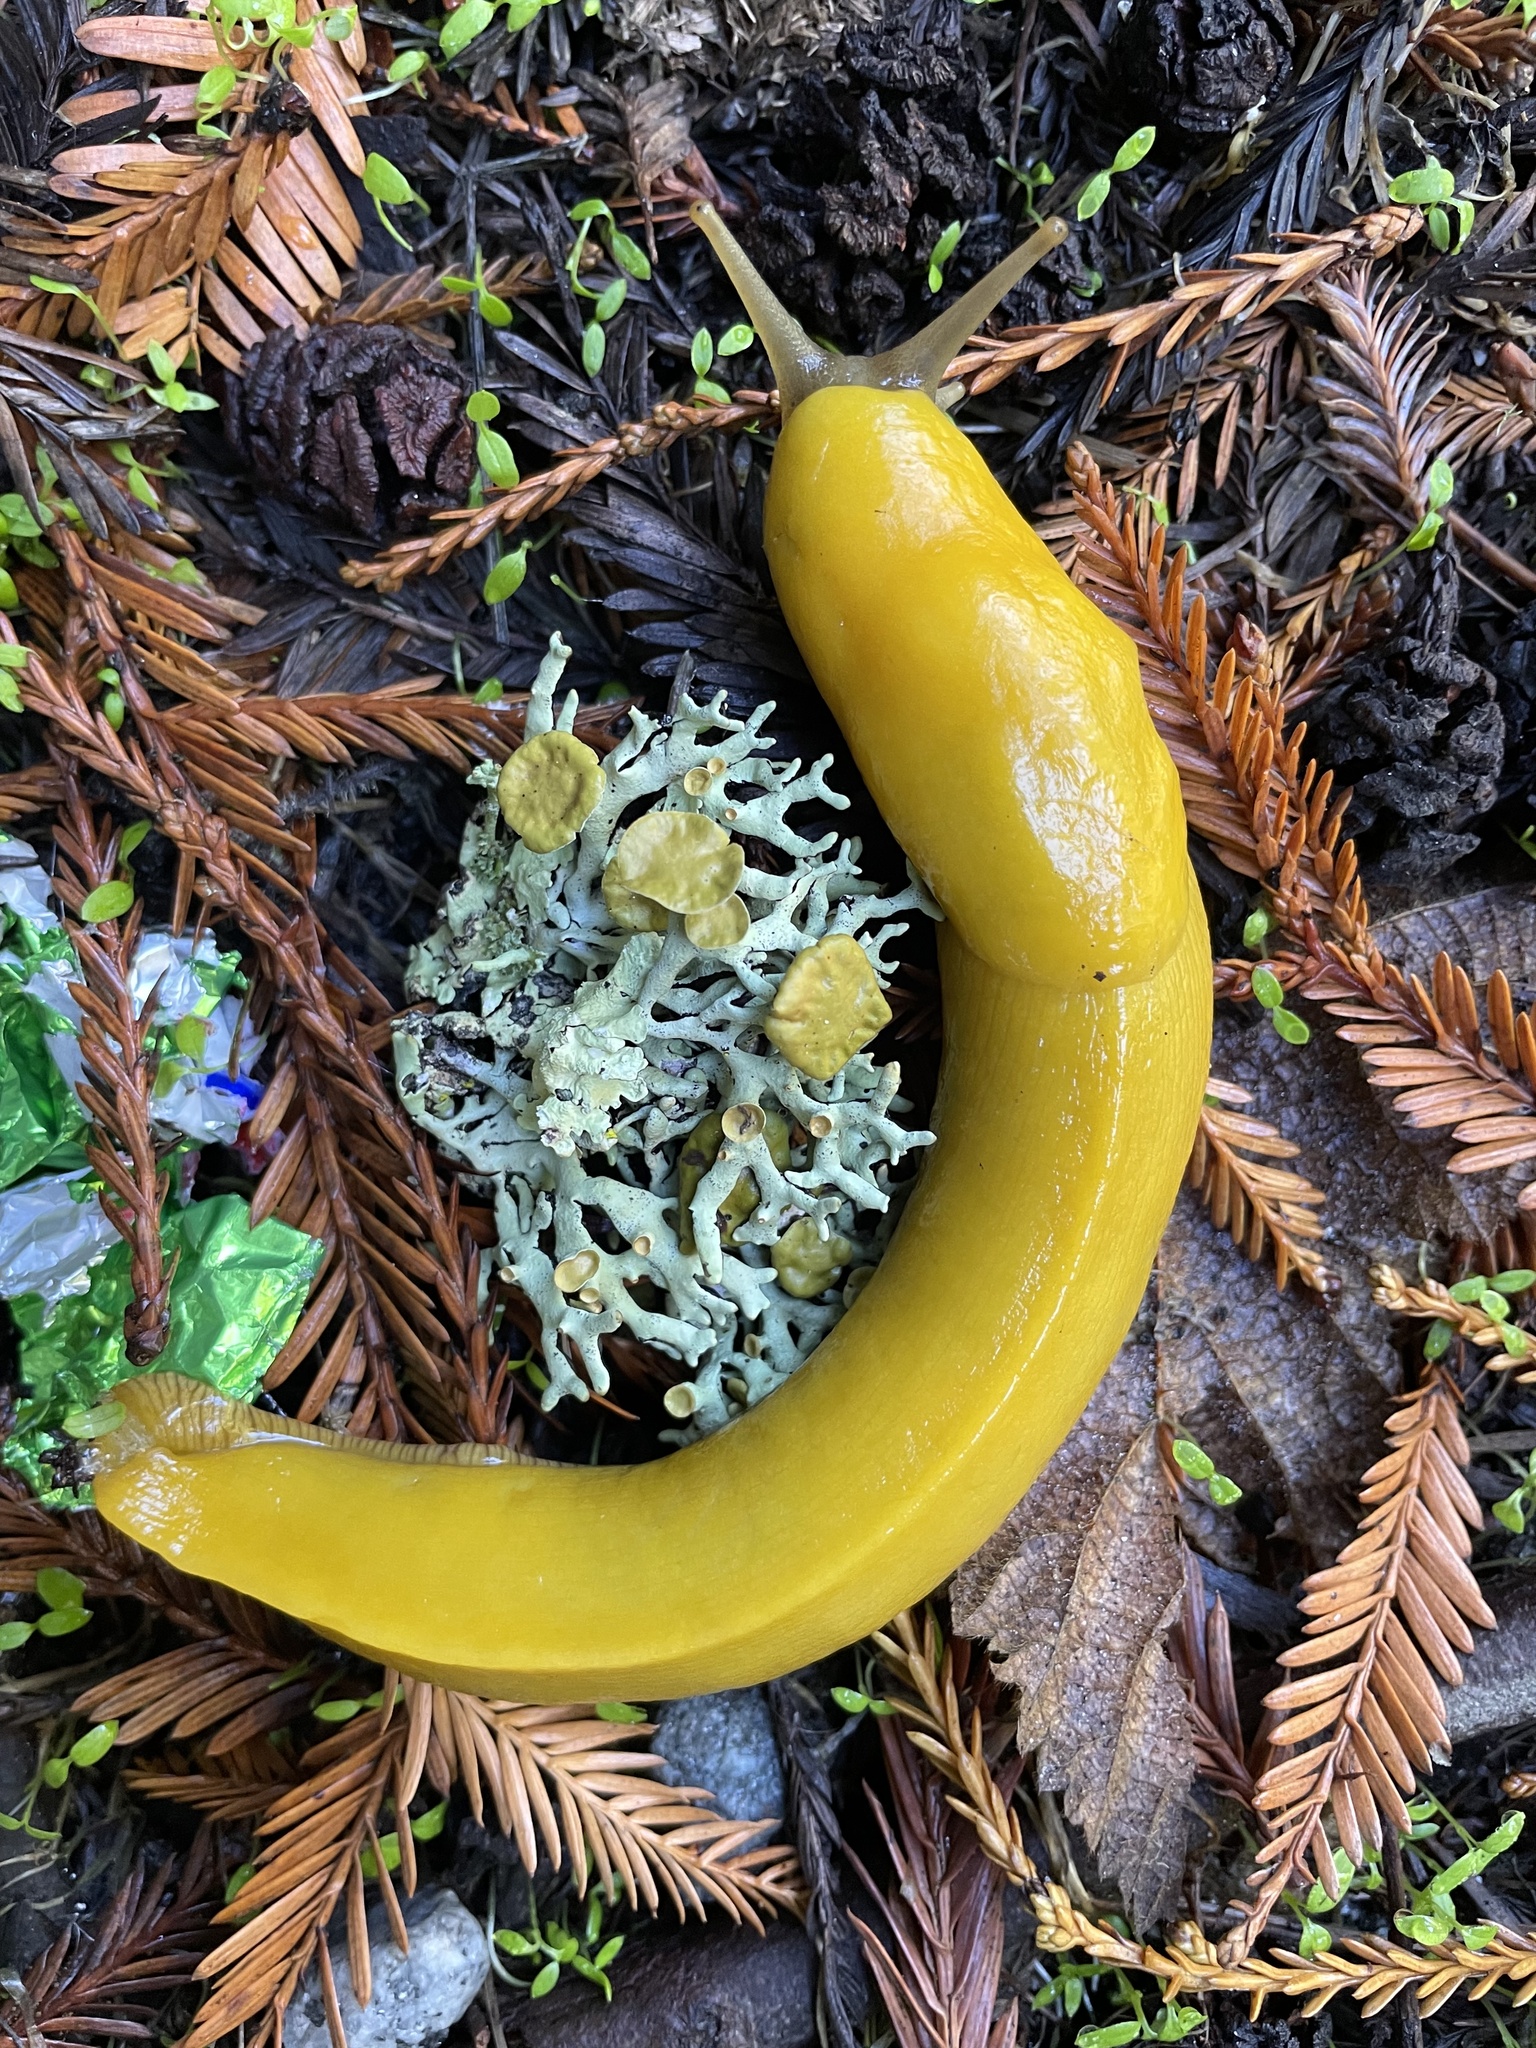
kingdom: Animalia
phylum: Mollusca
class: Gastropoda
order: Stylommatophora
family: Ariolimacidae
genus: Ariolimax
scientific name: Ariolimax californicus
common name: California banana slug
